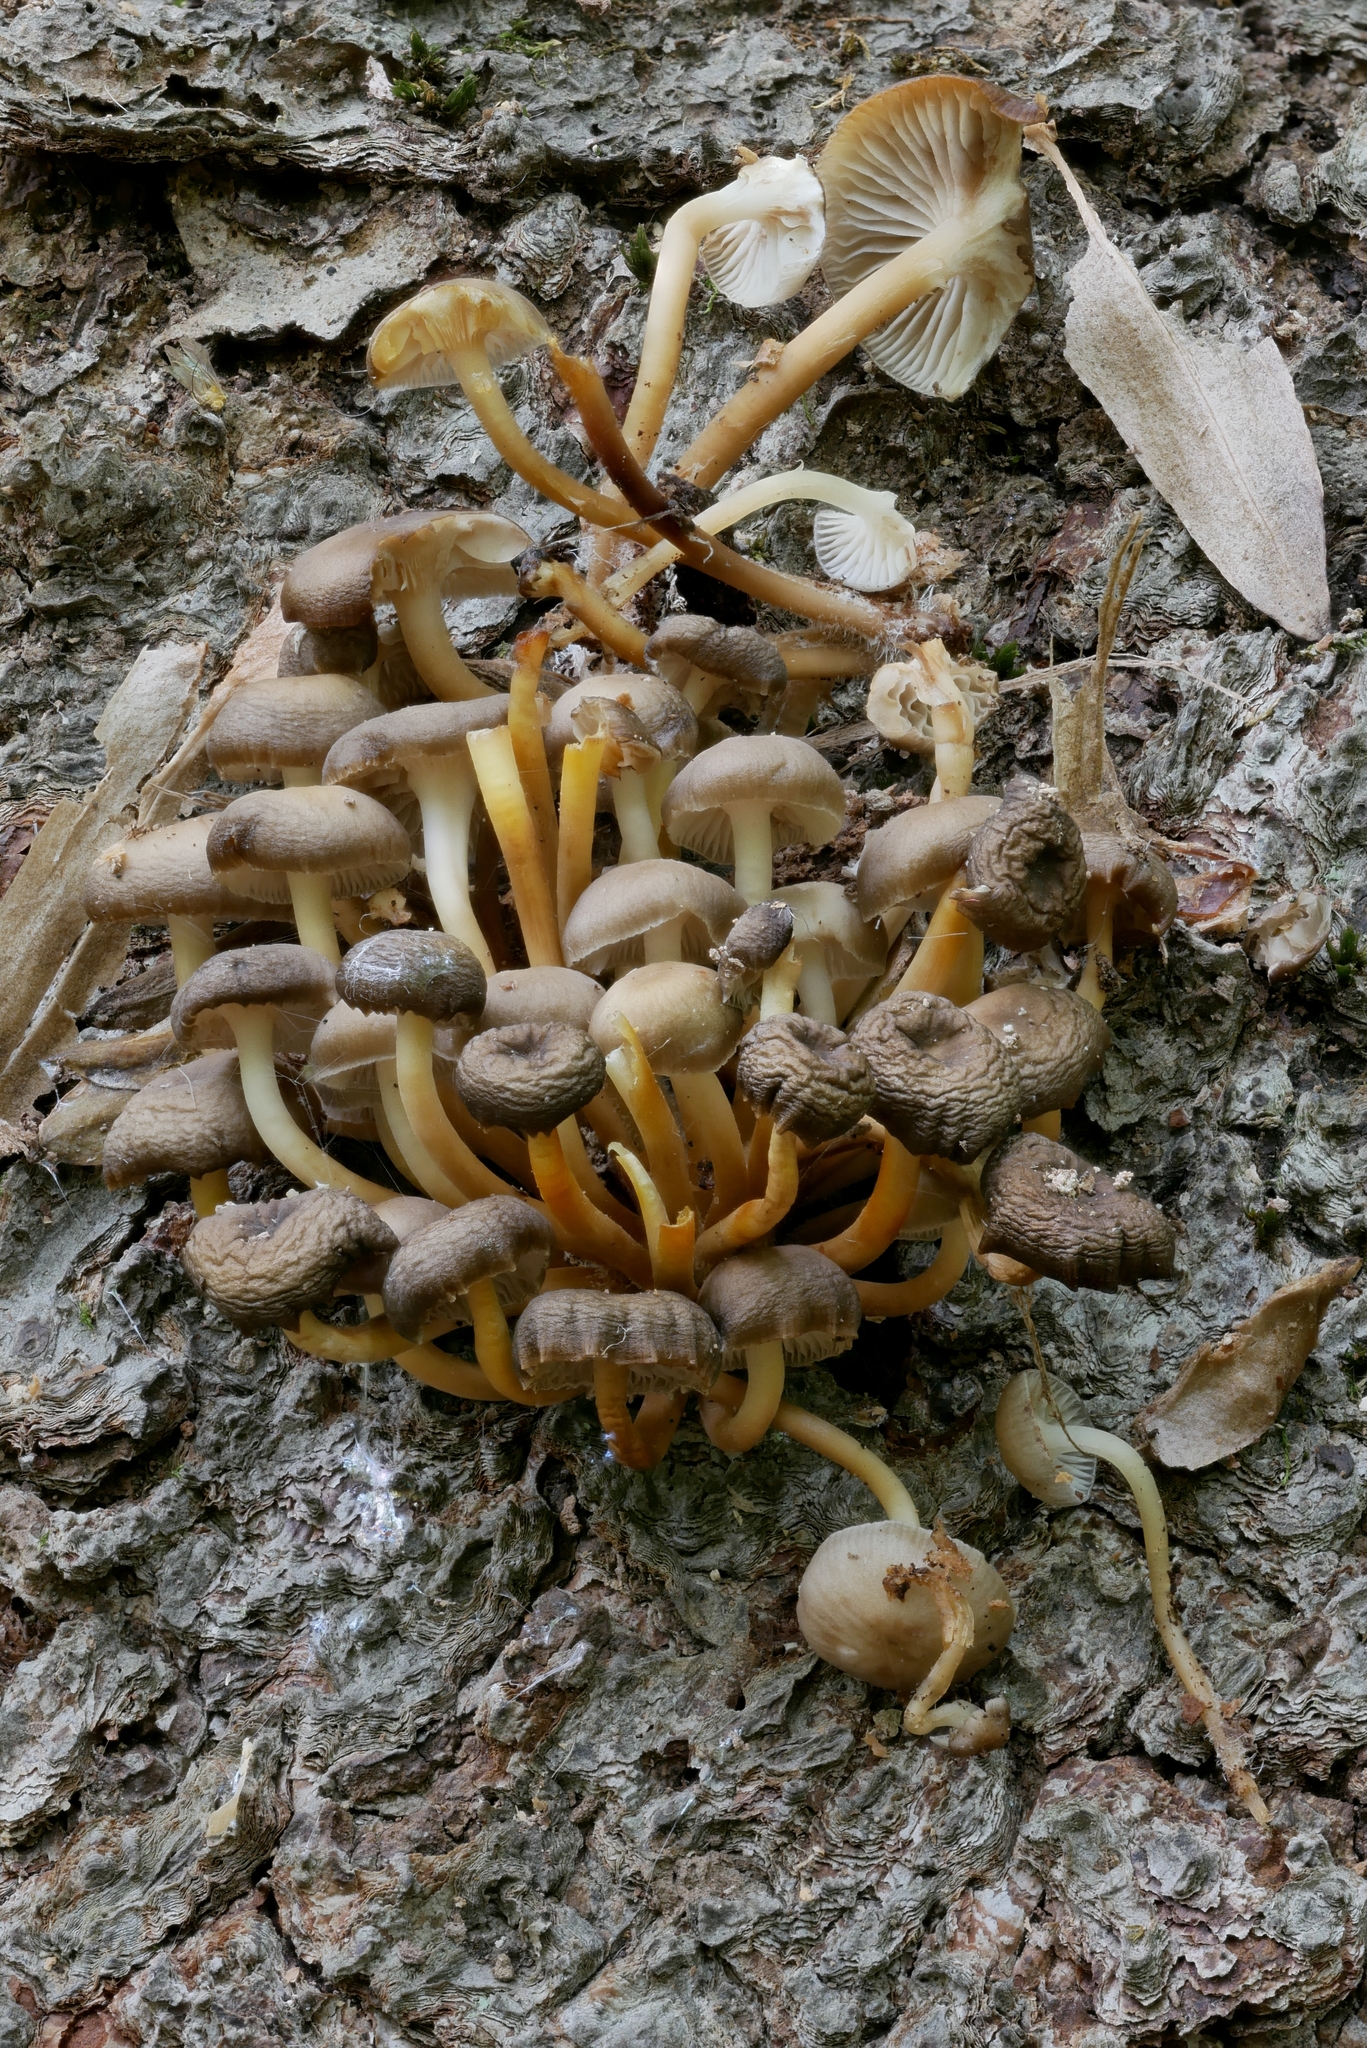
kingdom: Fungi
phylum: Basidiomycota
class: Agaricomycetes
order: Agaricales
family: Mycenaceae
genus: Mycena
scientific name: Mycena semivestipes
